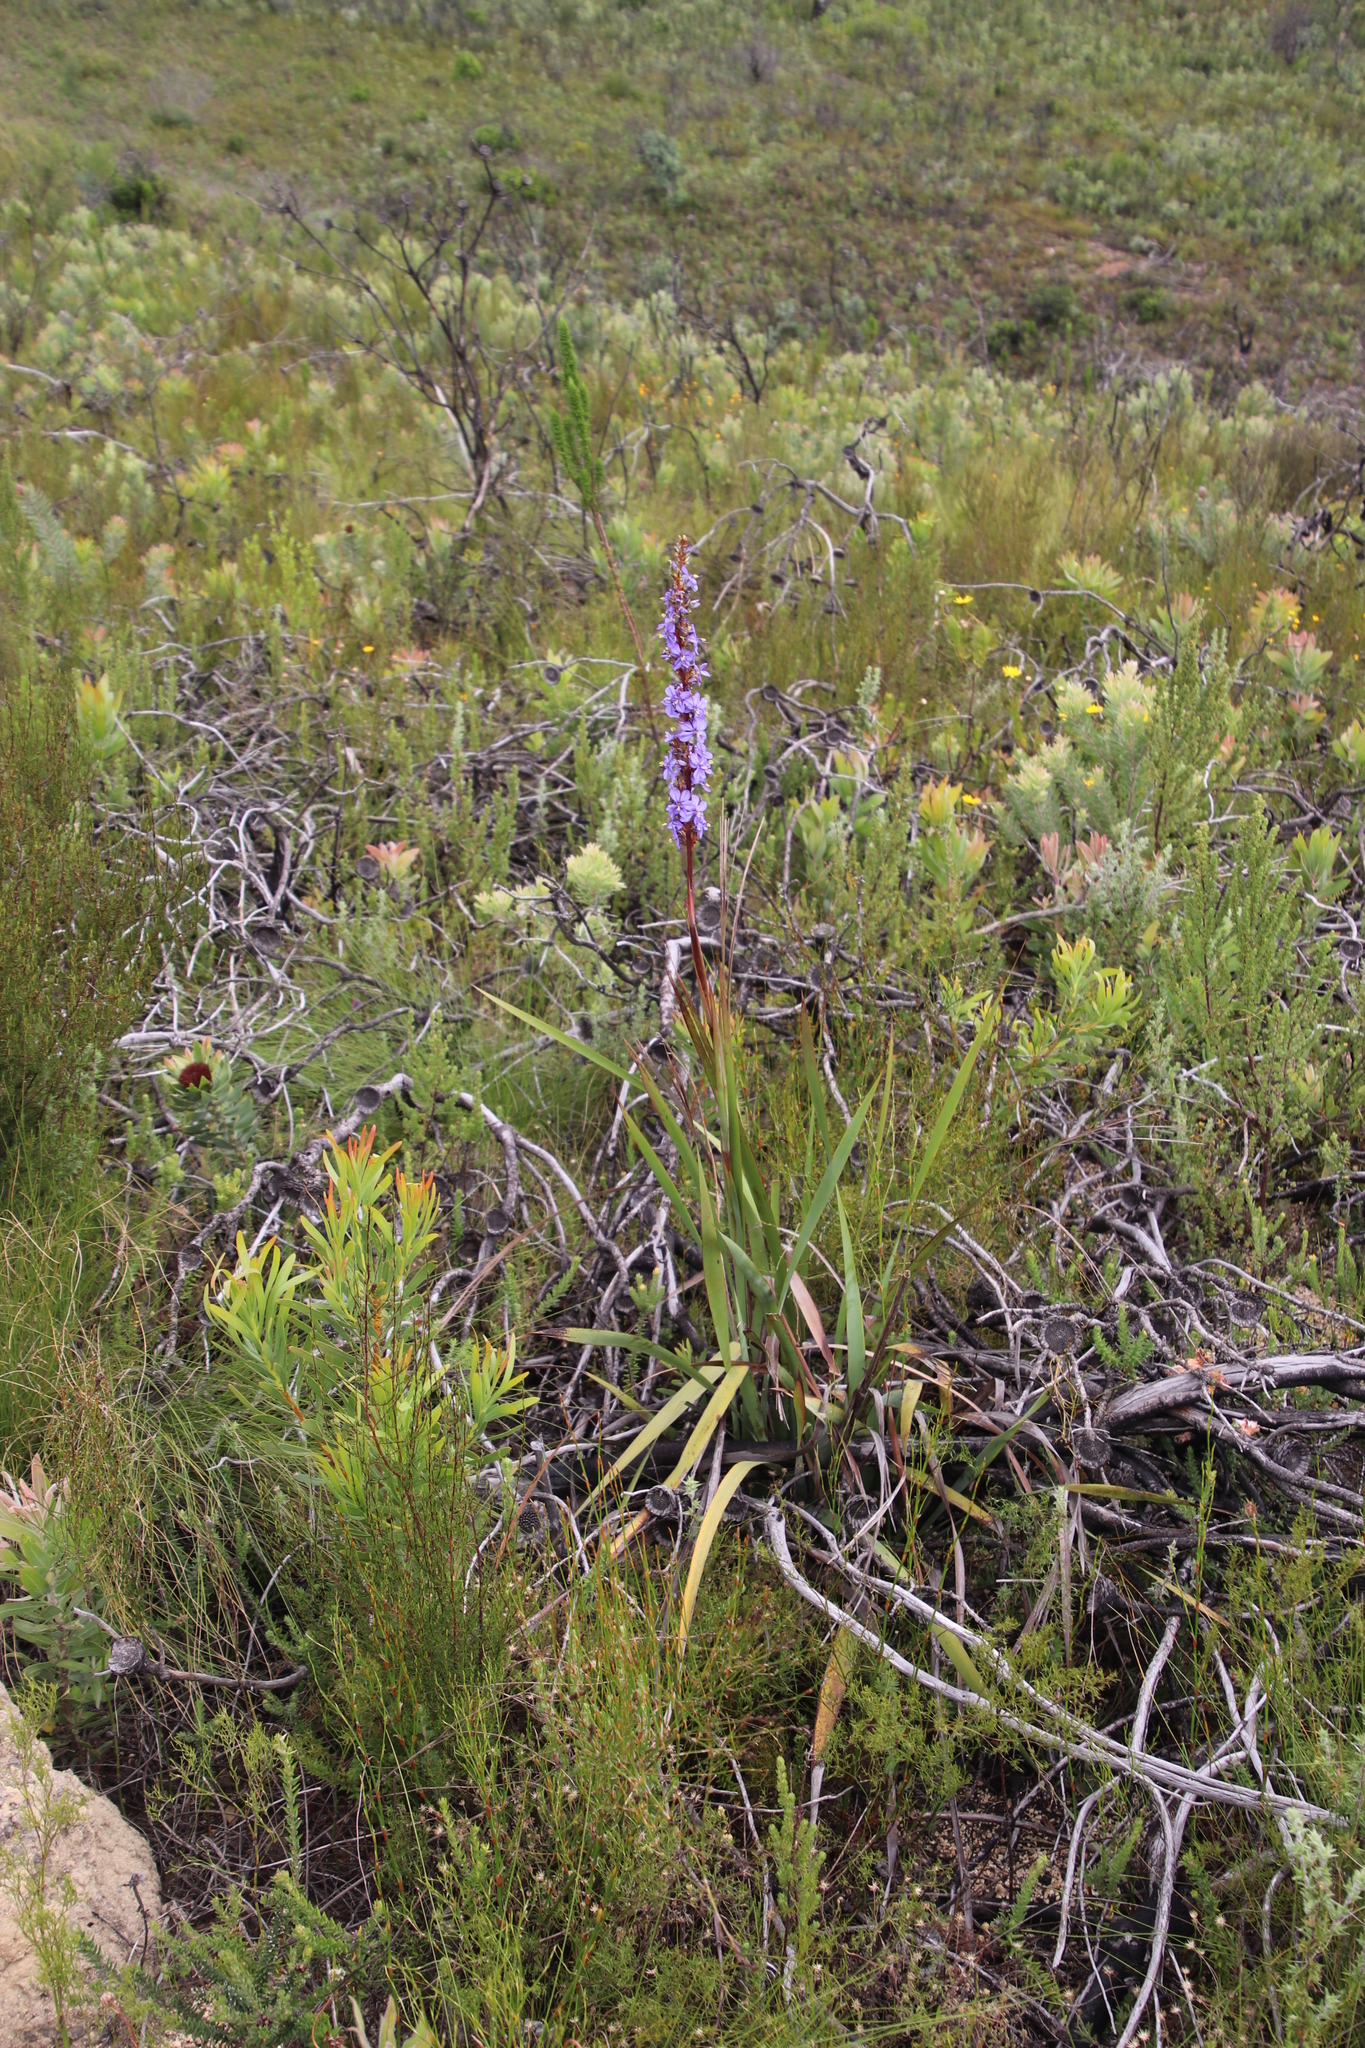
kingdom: Plantae
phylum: Tracheophyta
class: Liliopsida
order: Asparagales
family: Iridaceae
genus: Aristea
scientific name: Aristea capitata
